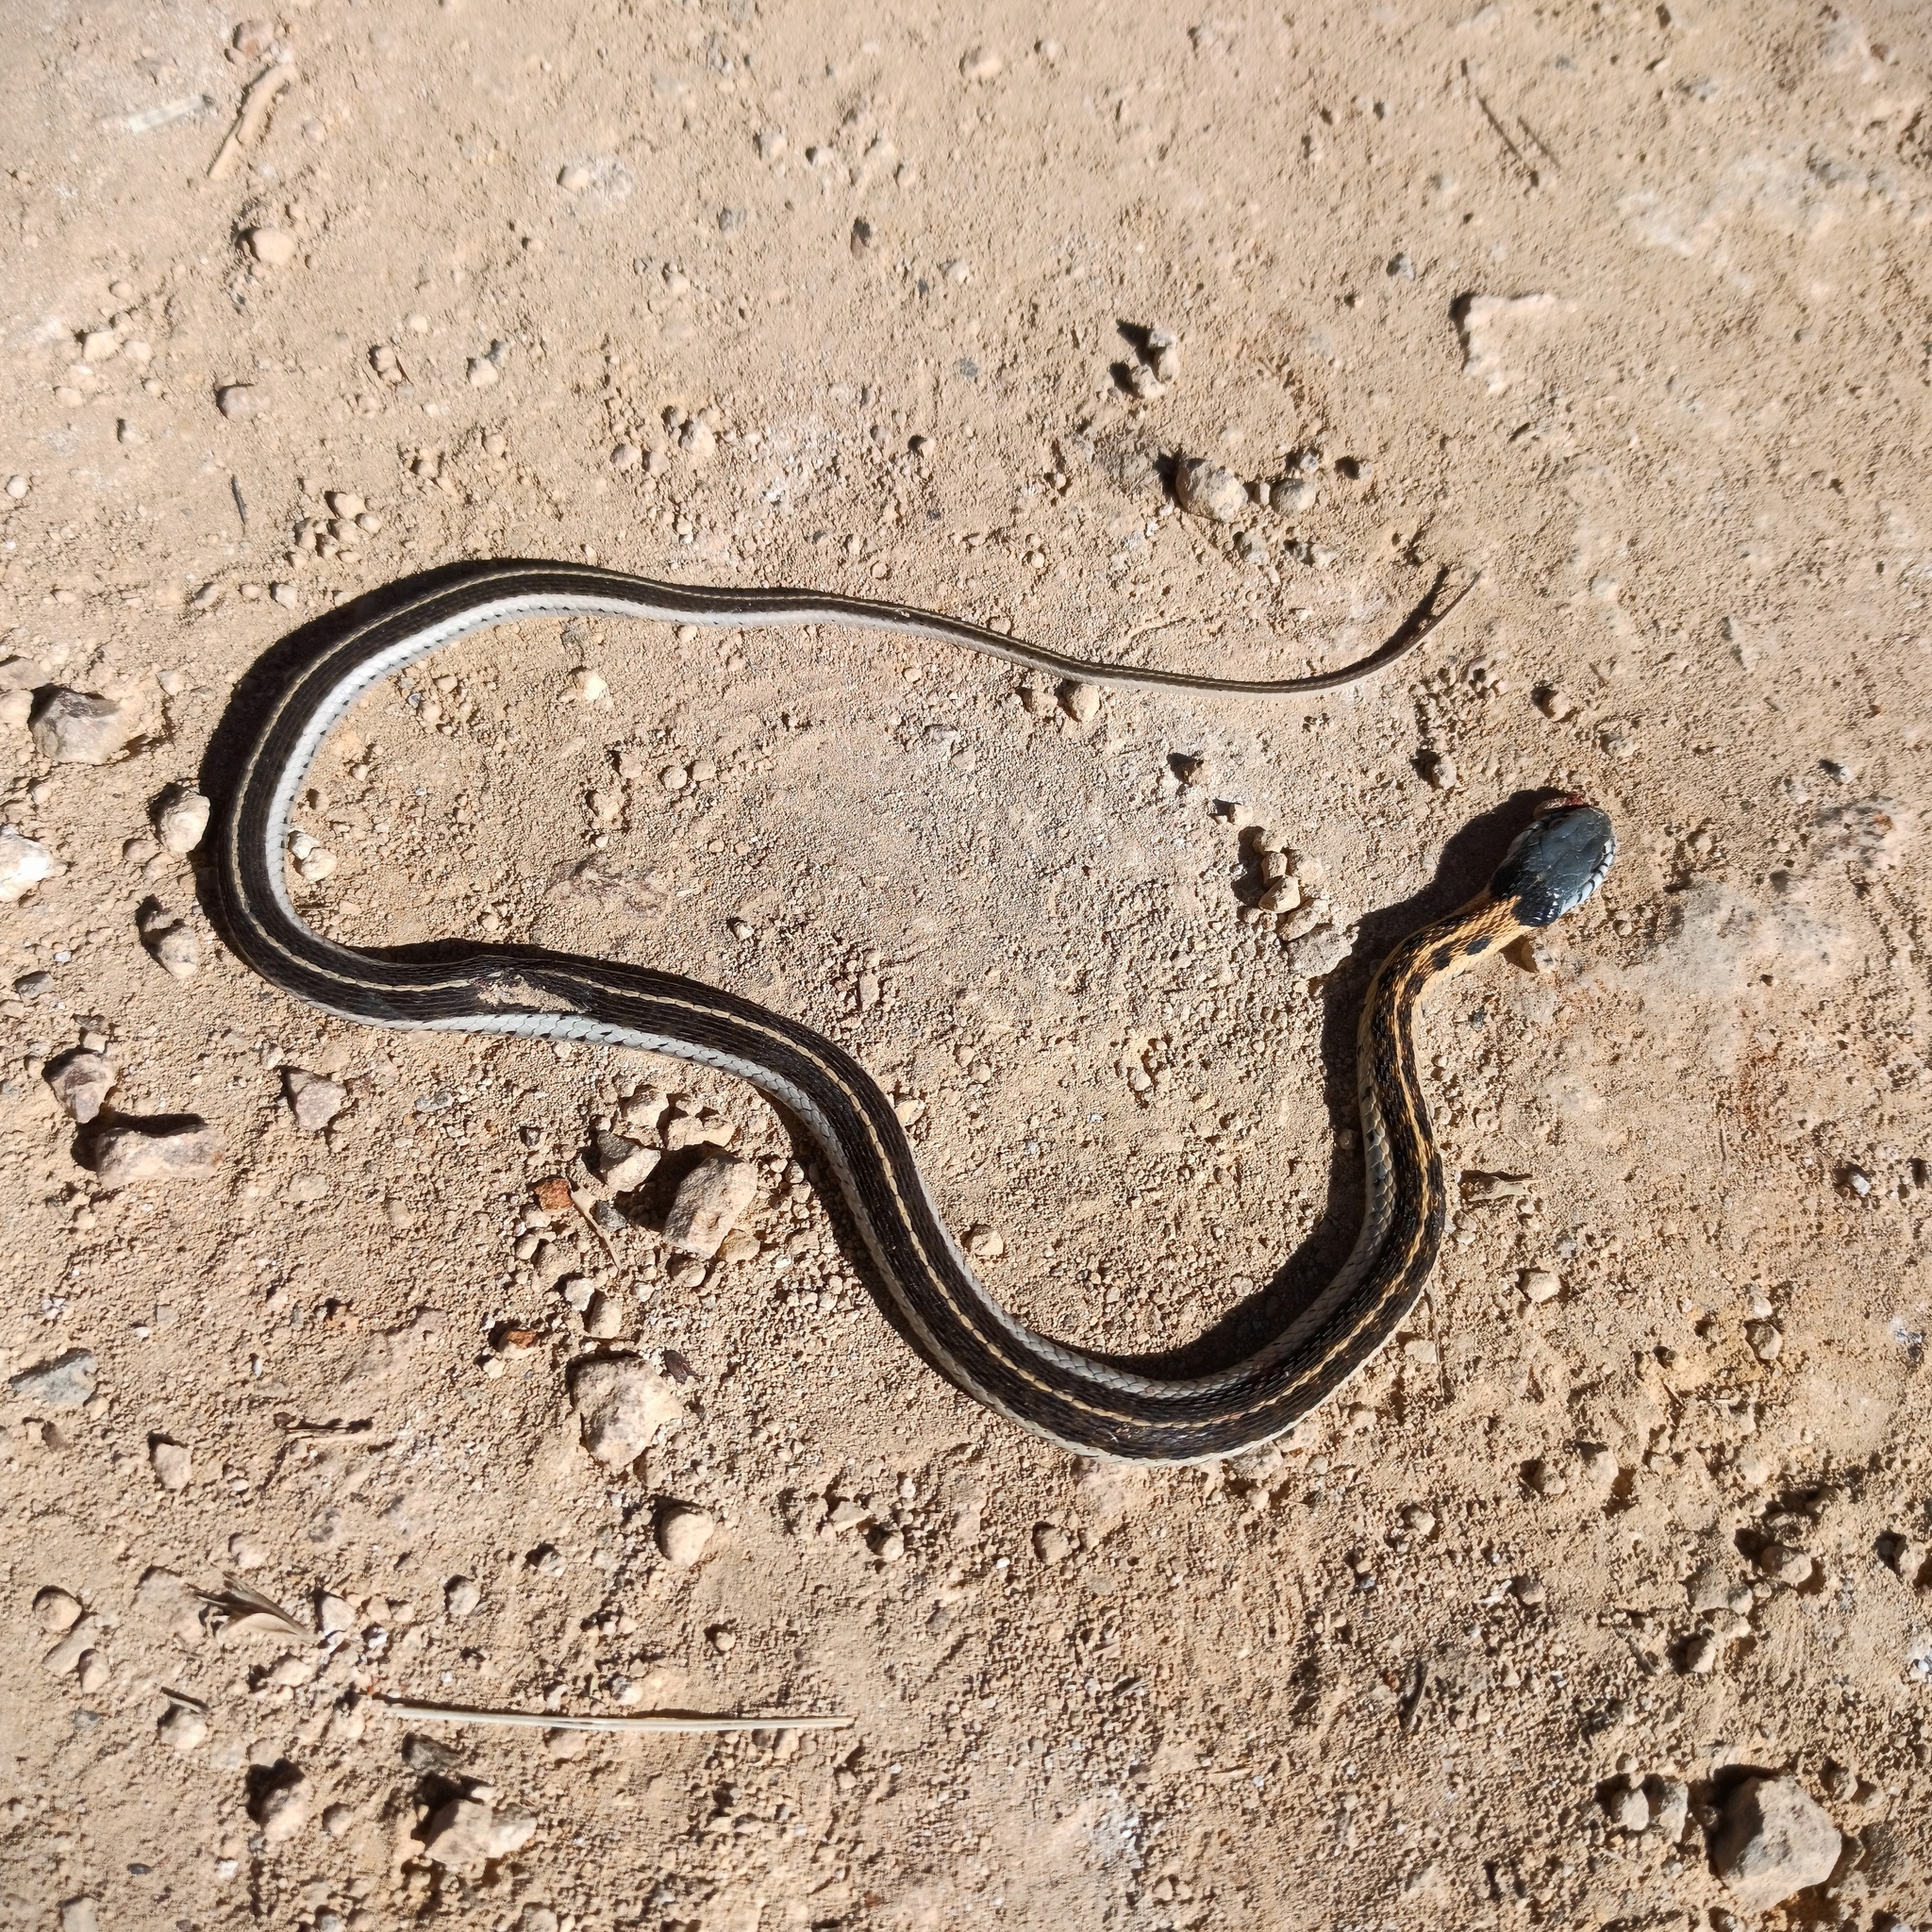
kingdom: Animalia
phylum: Chordata
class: Squamata
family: Colubridae
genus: Thamnophis
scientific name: Thamnophis cyrtopsis
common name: Black-necked gartersnake
